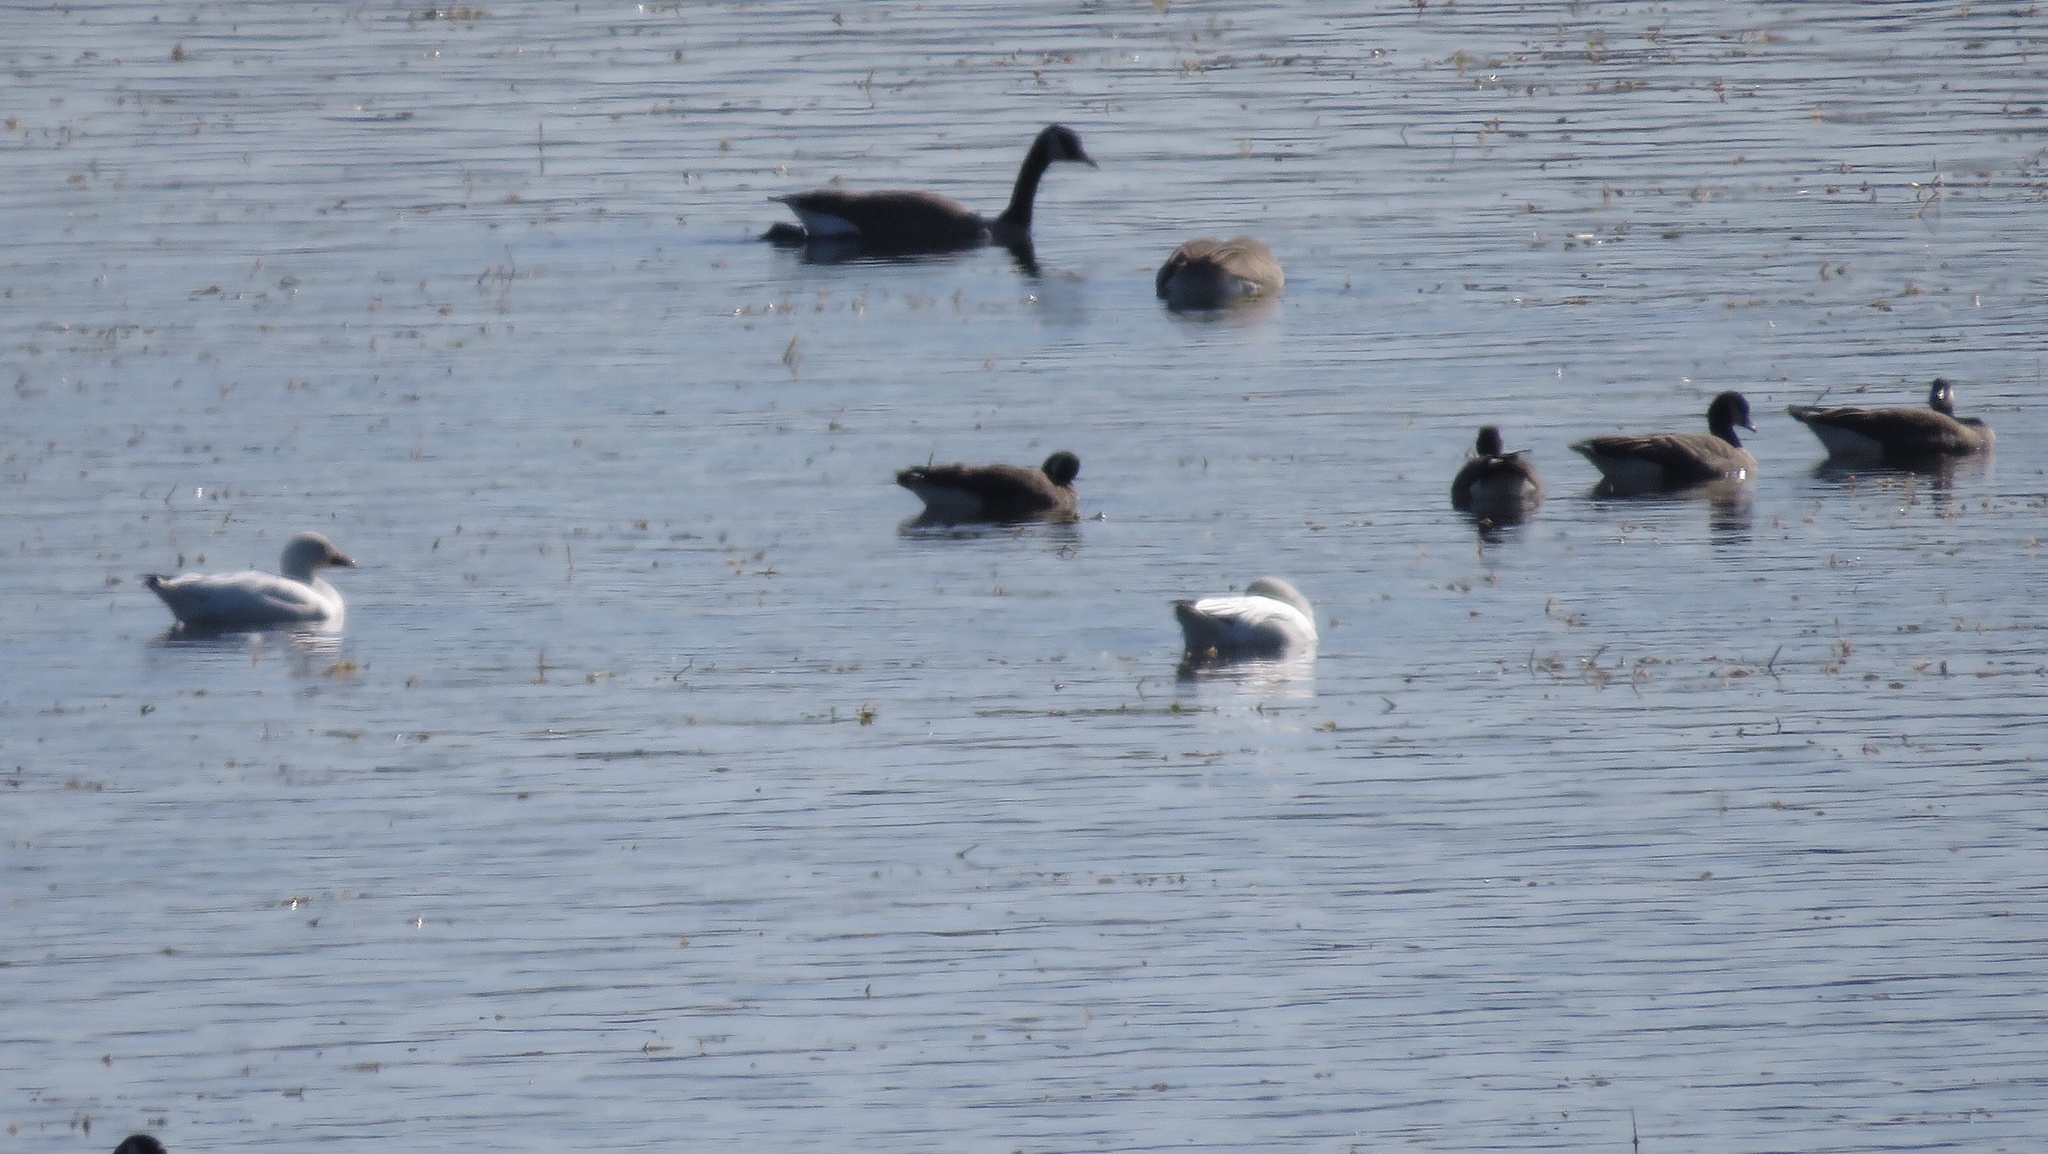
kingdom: Animalia
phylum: Chordata
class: Aves
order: Anseriformes
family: Anatidae
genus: Branta
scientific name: Branta hutchinsii
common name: Cackling goose
